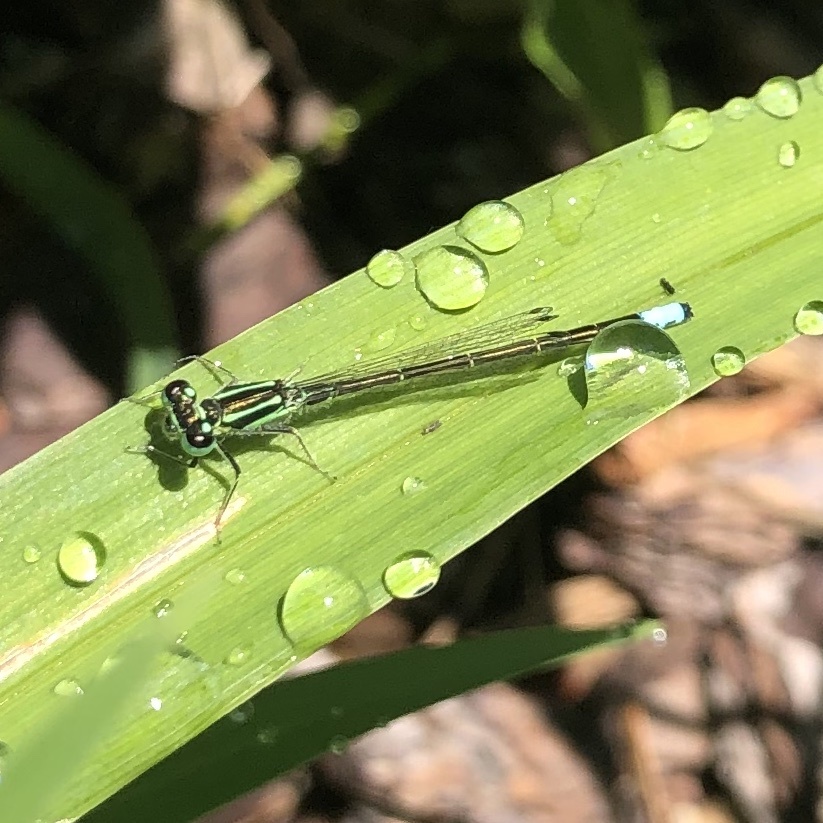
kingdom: Animalia
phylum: Arthropoda
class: Insecta
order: Odonata
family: Coenagrionidae
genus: Ischnura
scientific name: Ischnura verticalis
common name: Eastern forktail
